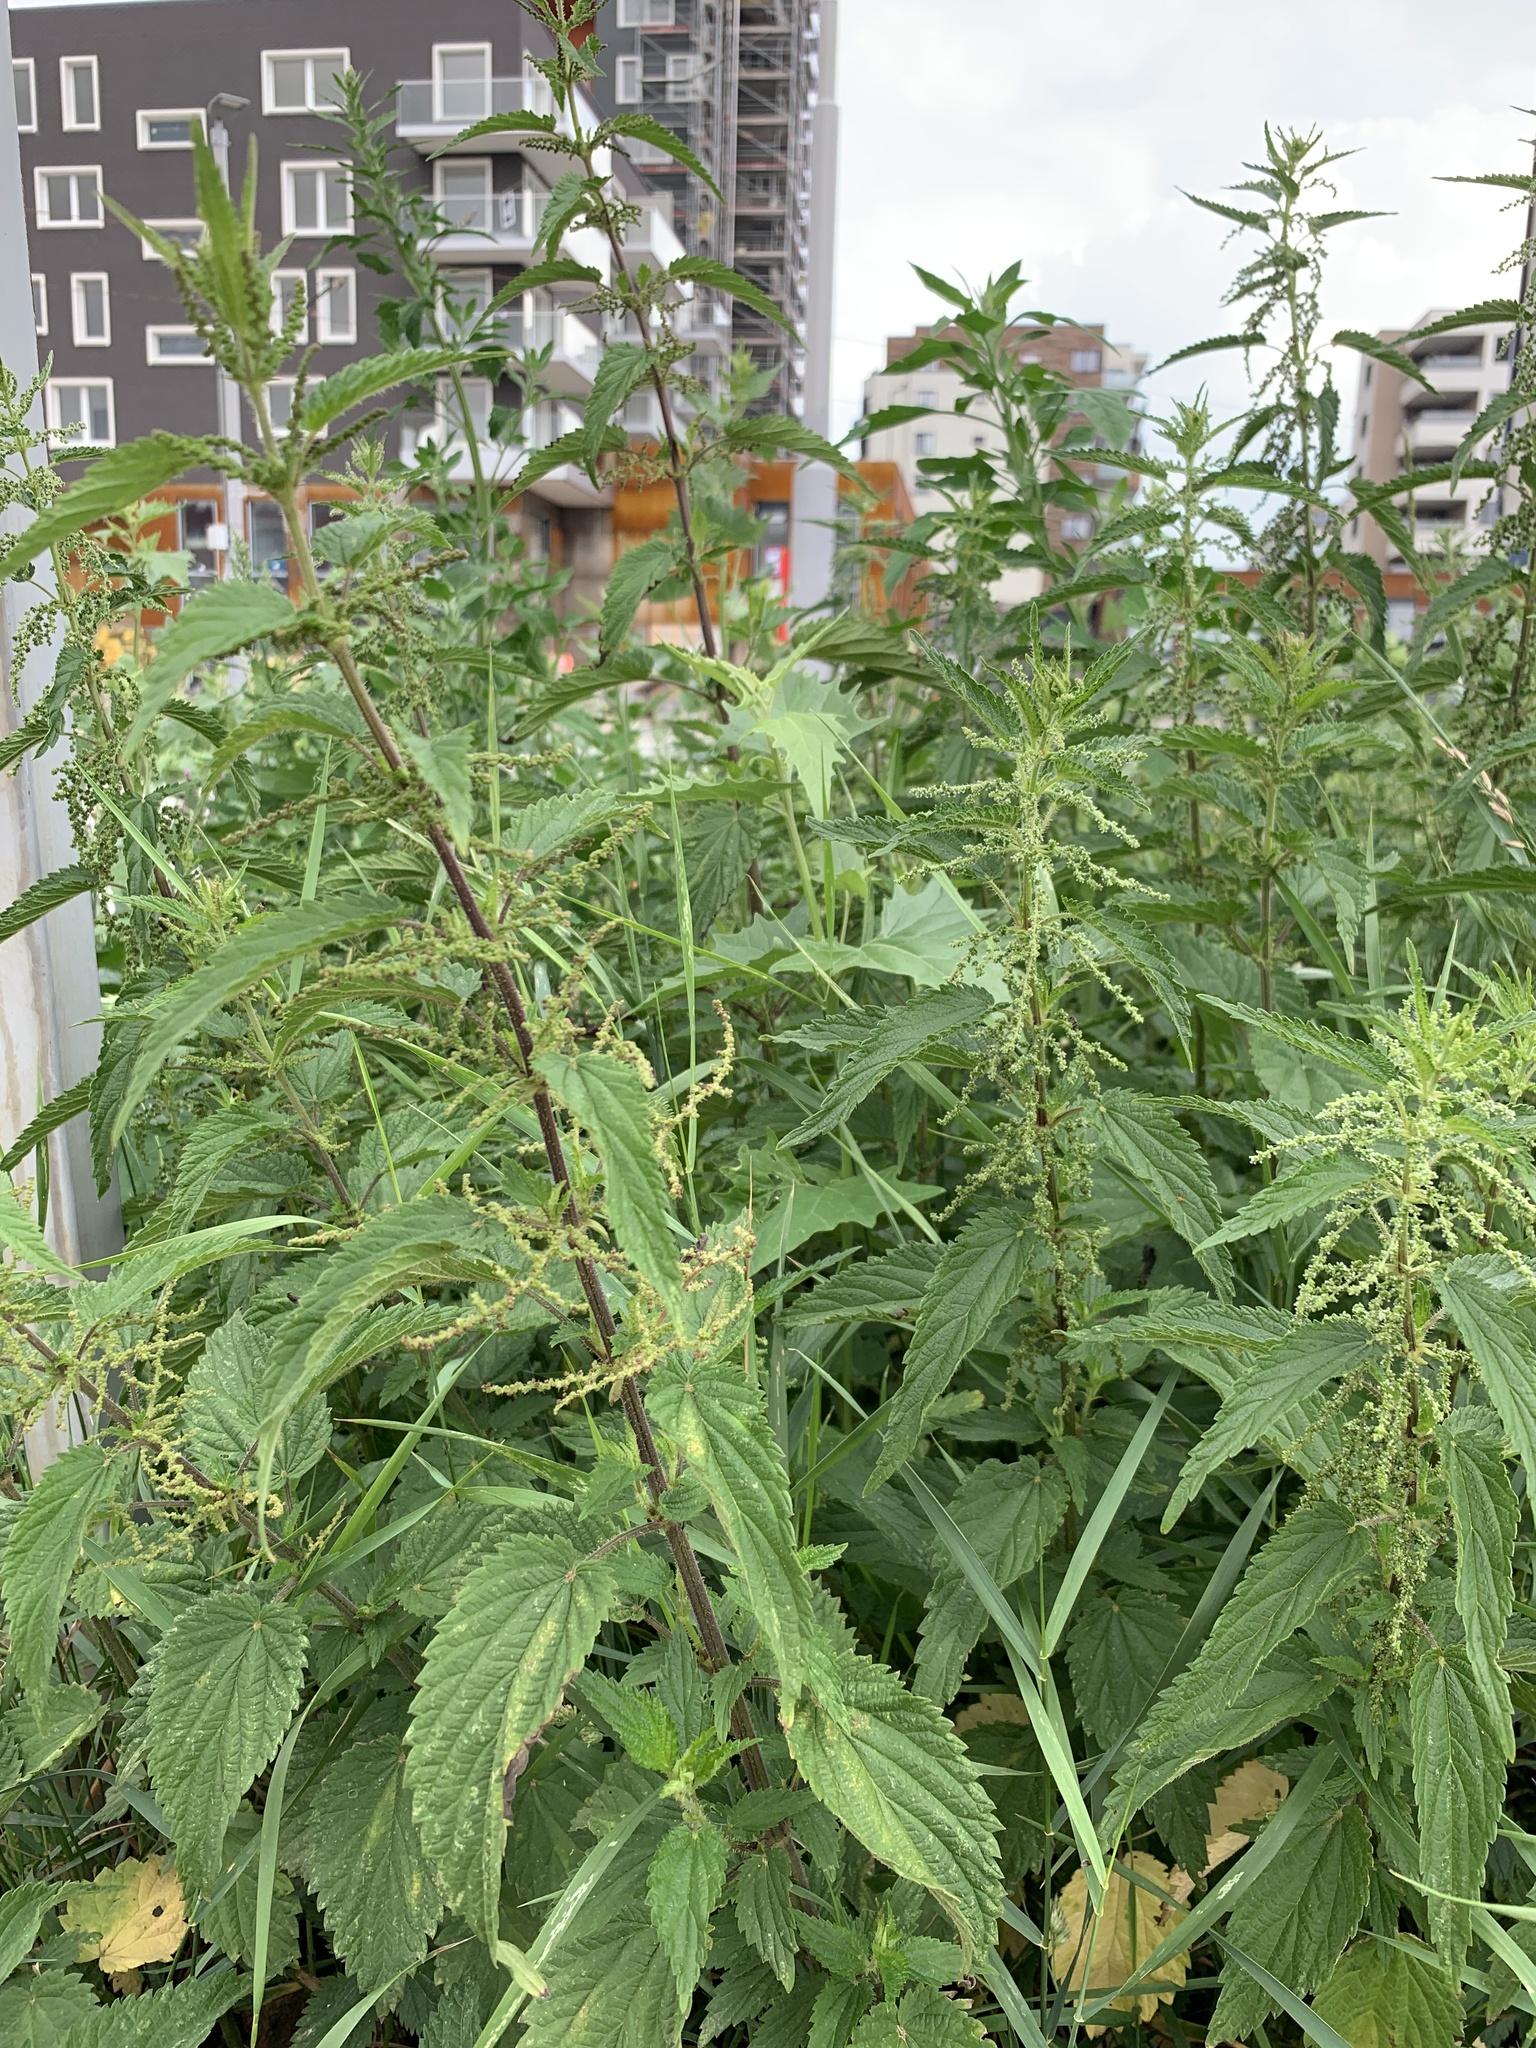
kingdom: Plantae
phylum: Tracheophyta
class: Magnoliopsida
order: Rosales
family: Urticaceae
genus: Urtica
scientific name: Urtica dioica
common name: Common nettle
